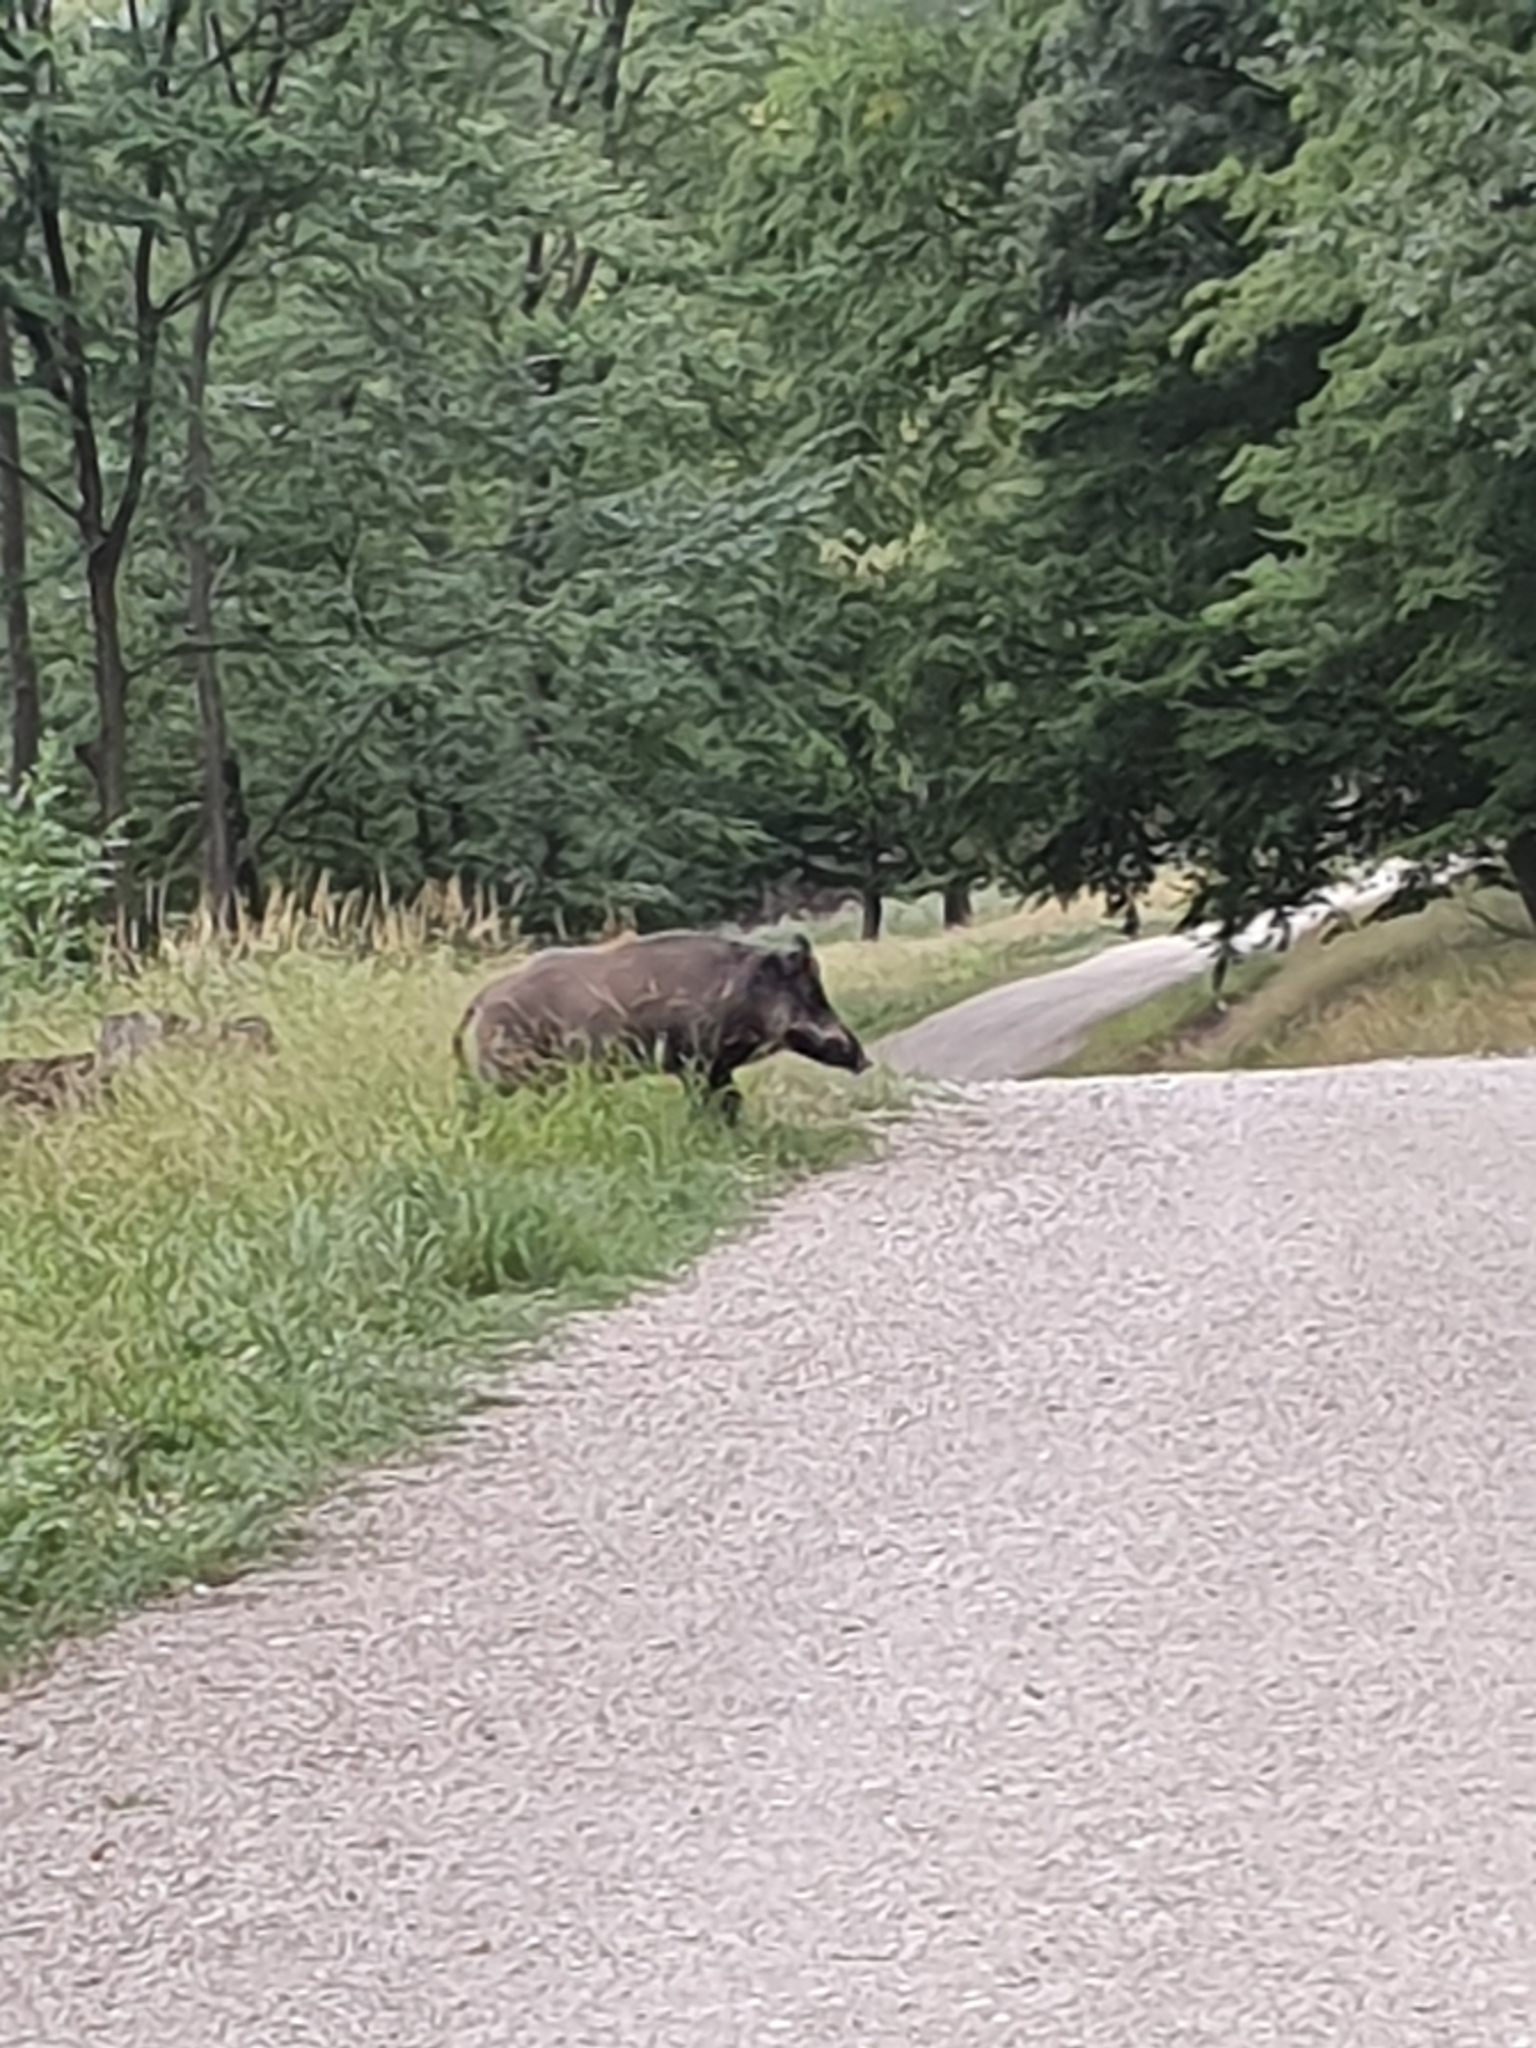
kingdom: Animalia
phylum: Chordata
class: Mammalia
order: Artiodactyla
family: Suidae
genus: Sus
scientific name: Sus scrofa
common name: Wild boar
